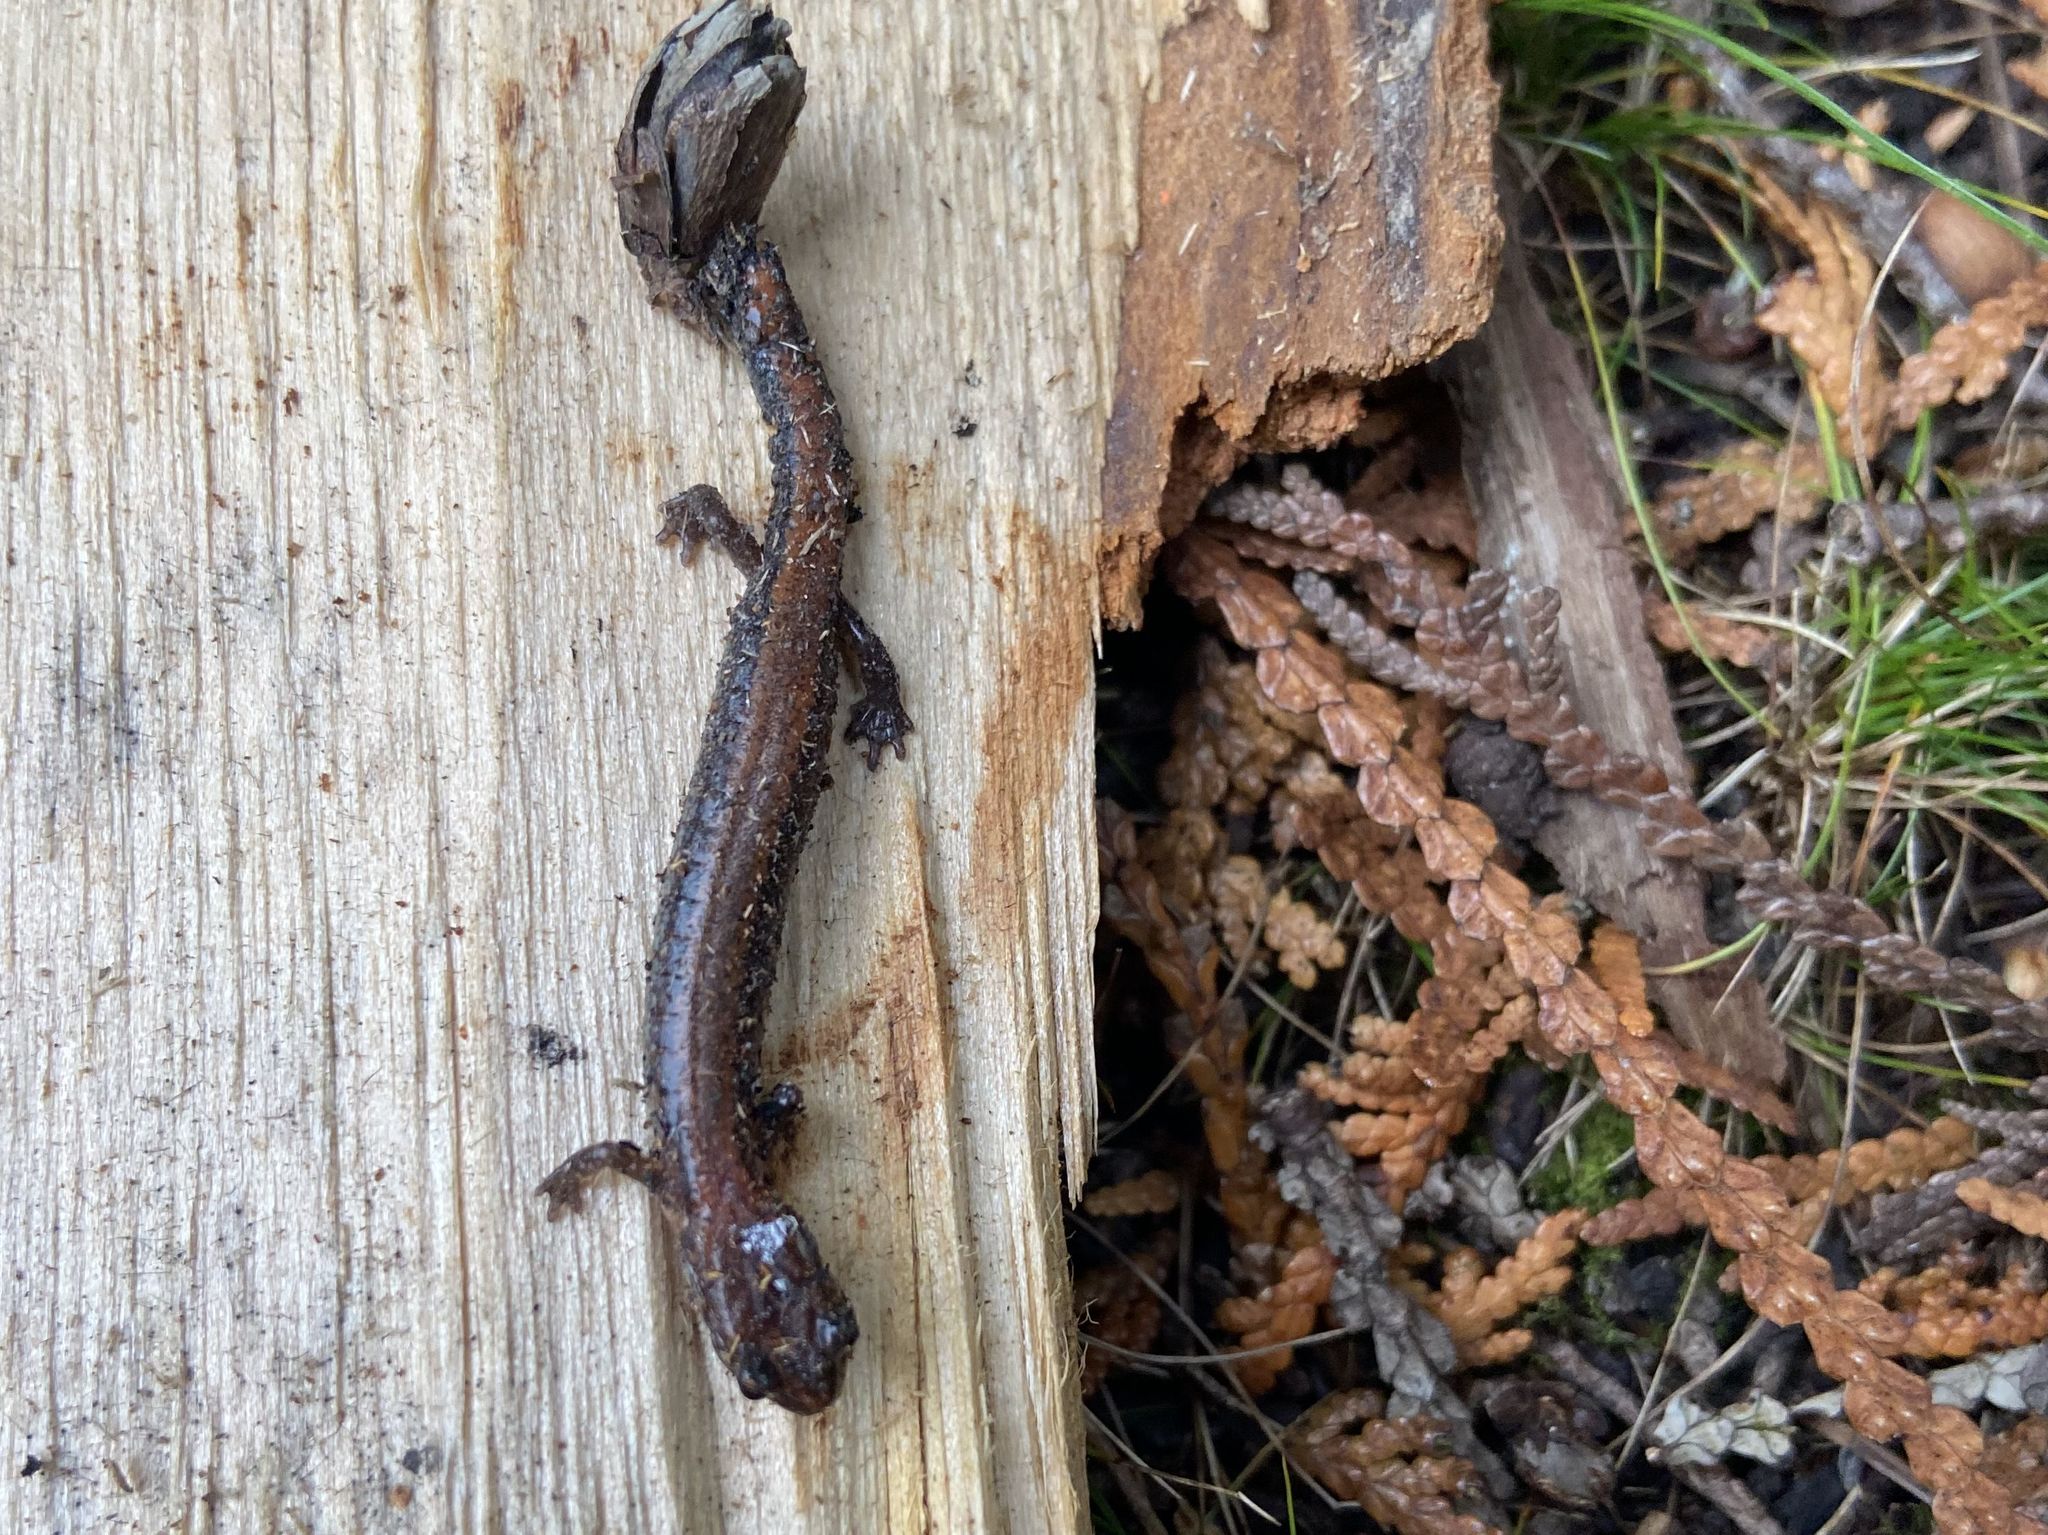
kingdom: Animalia
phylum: Chordata
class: Amphibia
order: Caudata
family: Plethodontidae
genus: Plethodon
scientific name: Plethodon cinereus
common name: Redback salamander
